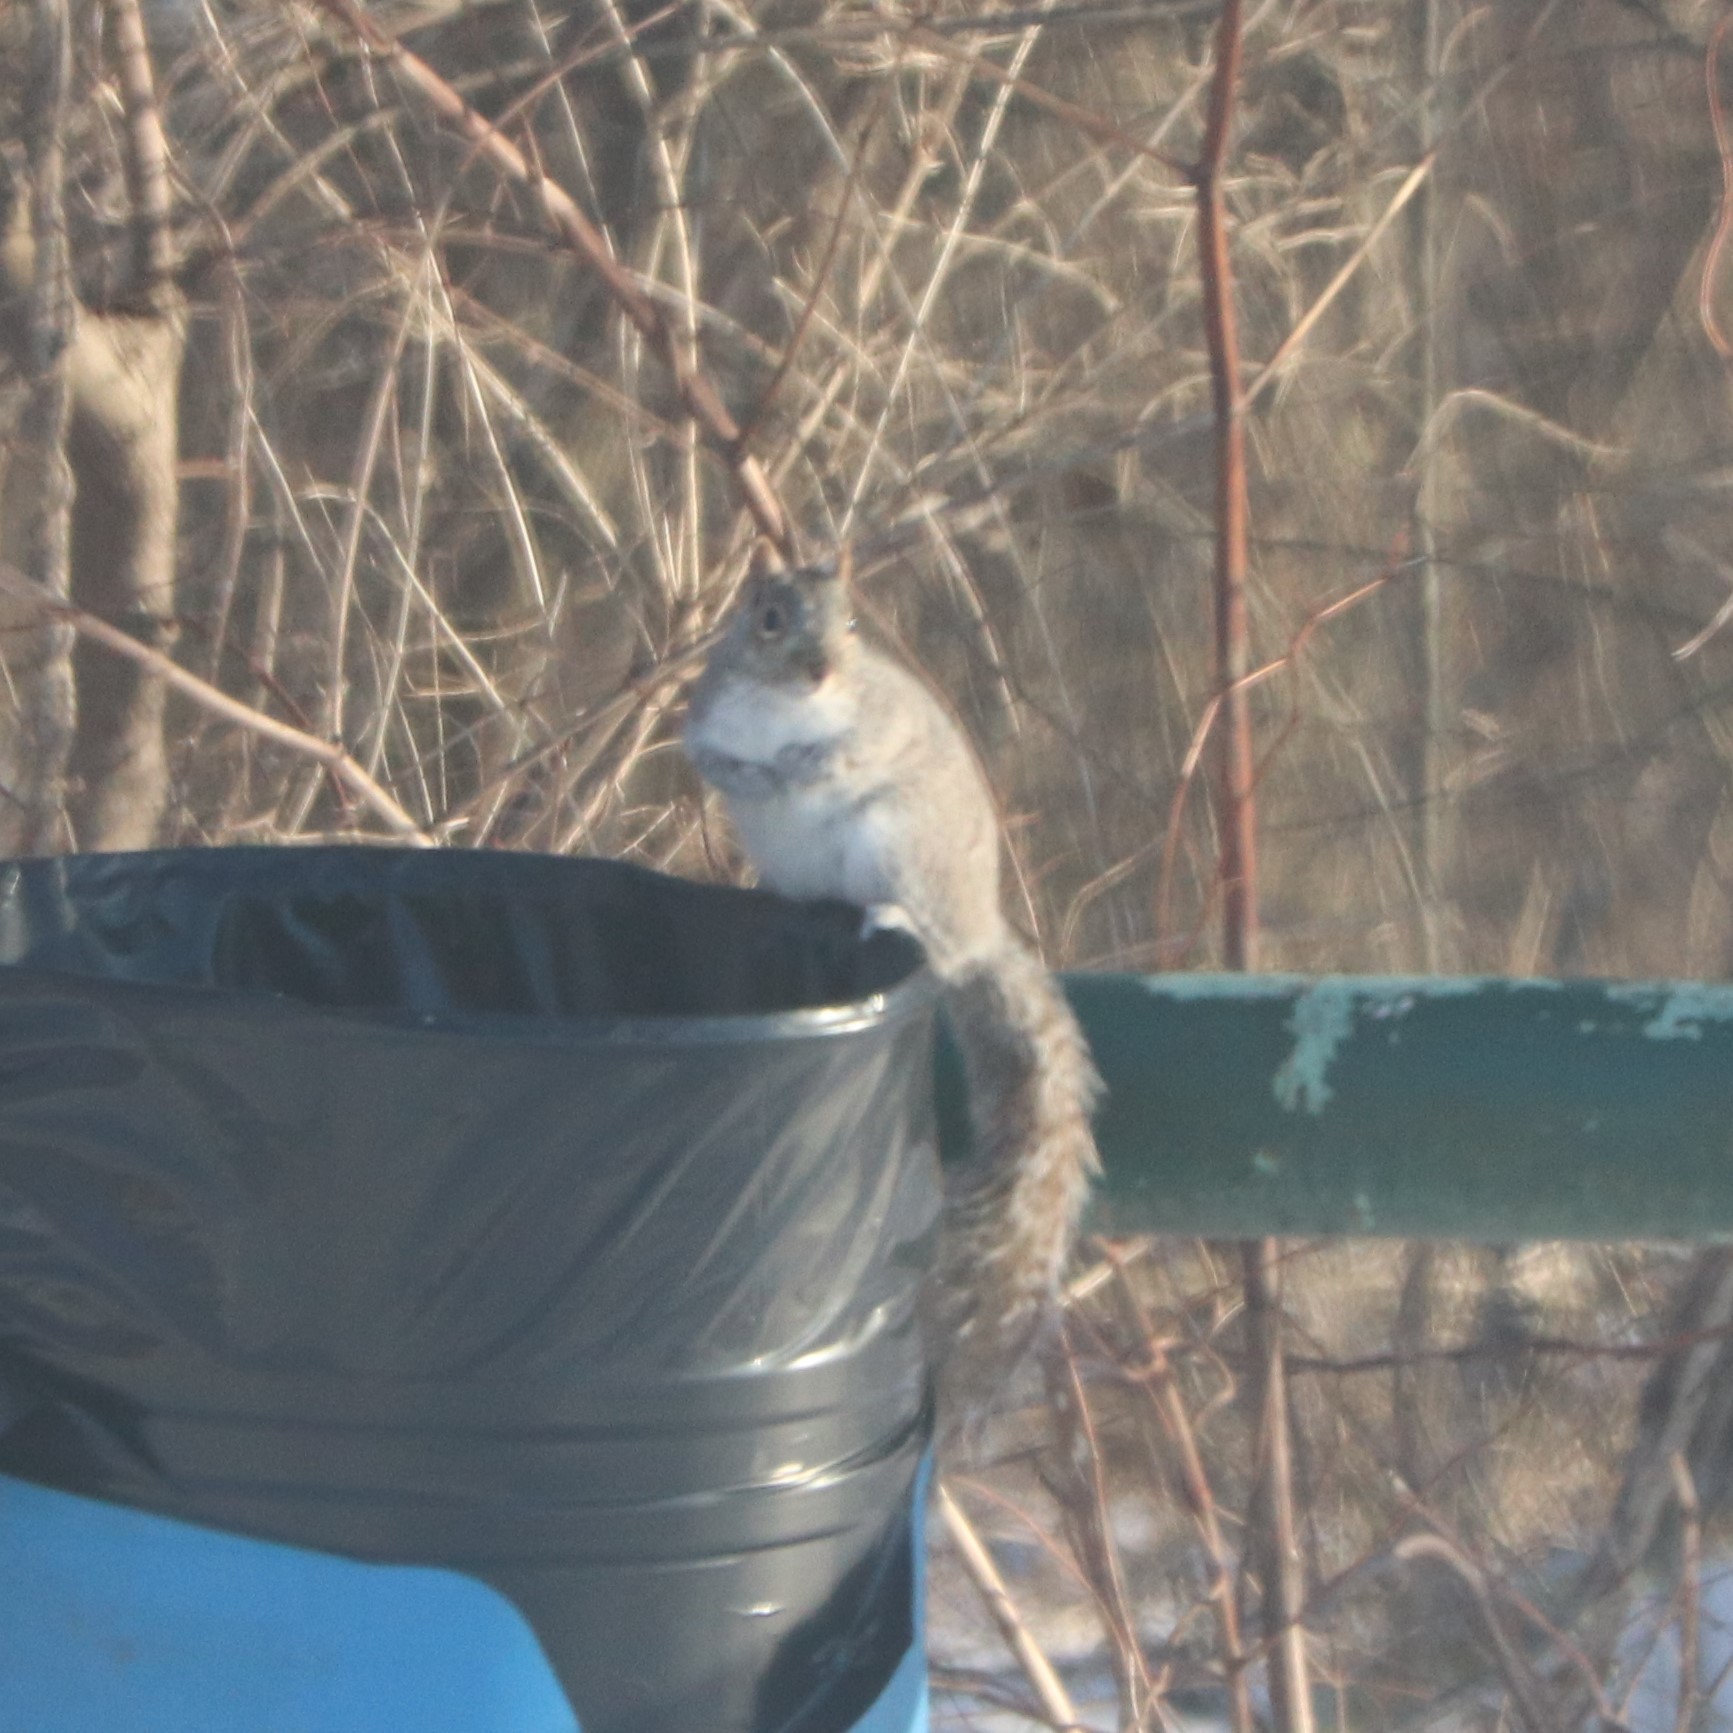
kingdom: Animalia
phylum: Chordata
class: Mammalia
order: Rodentia
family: Sciuridae
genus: Sciurus
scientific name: Sciurus carolinensis
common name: Eastern gray squirrel
